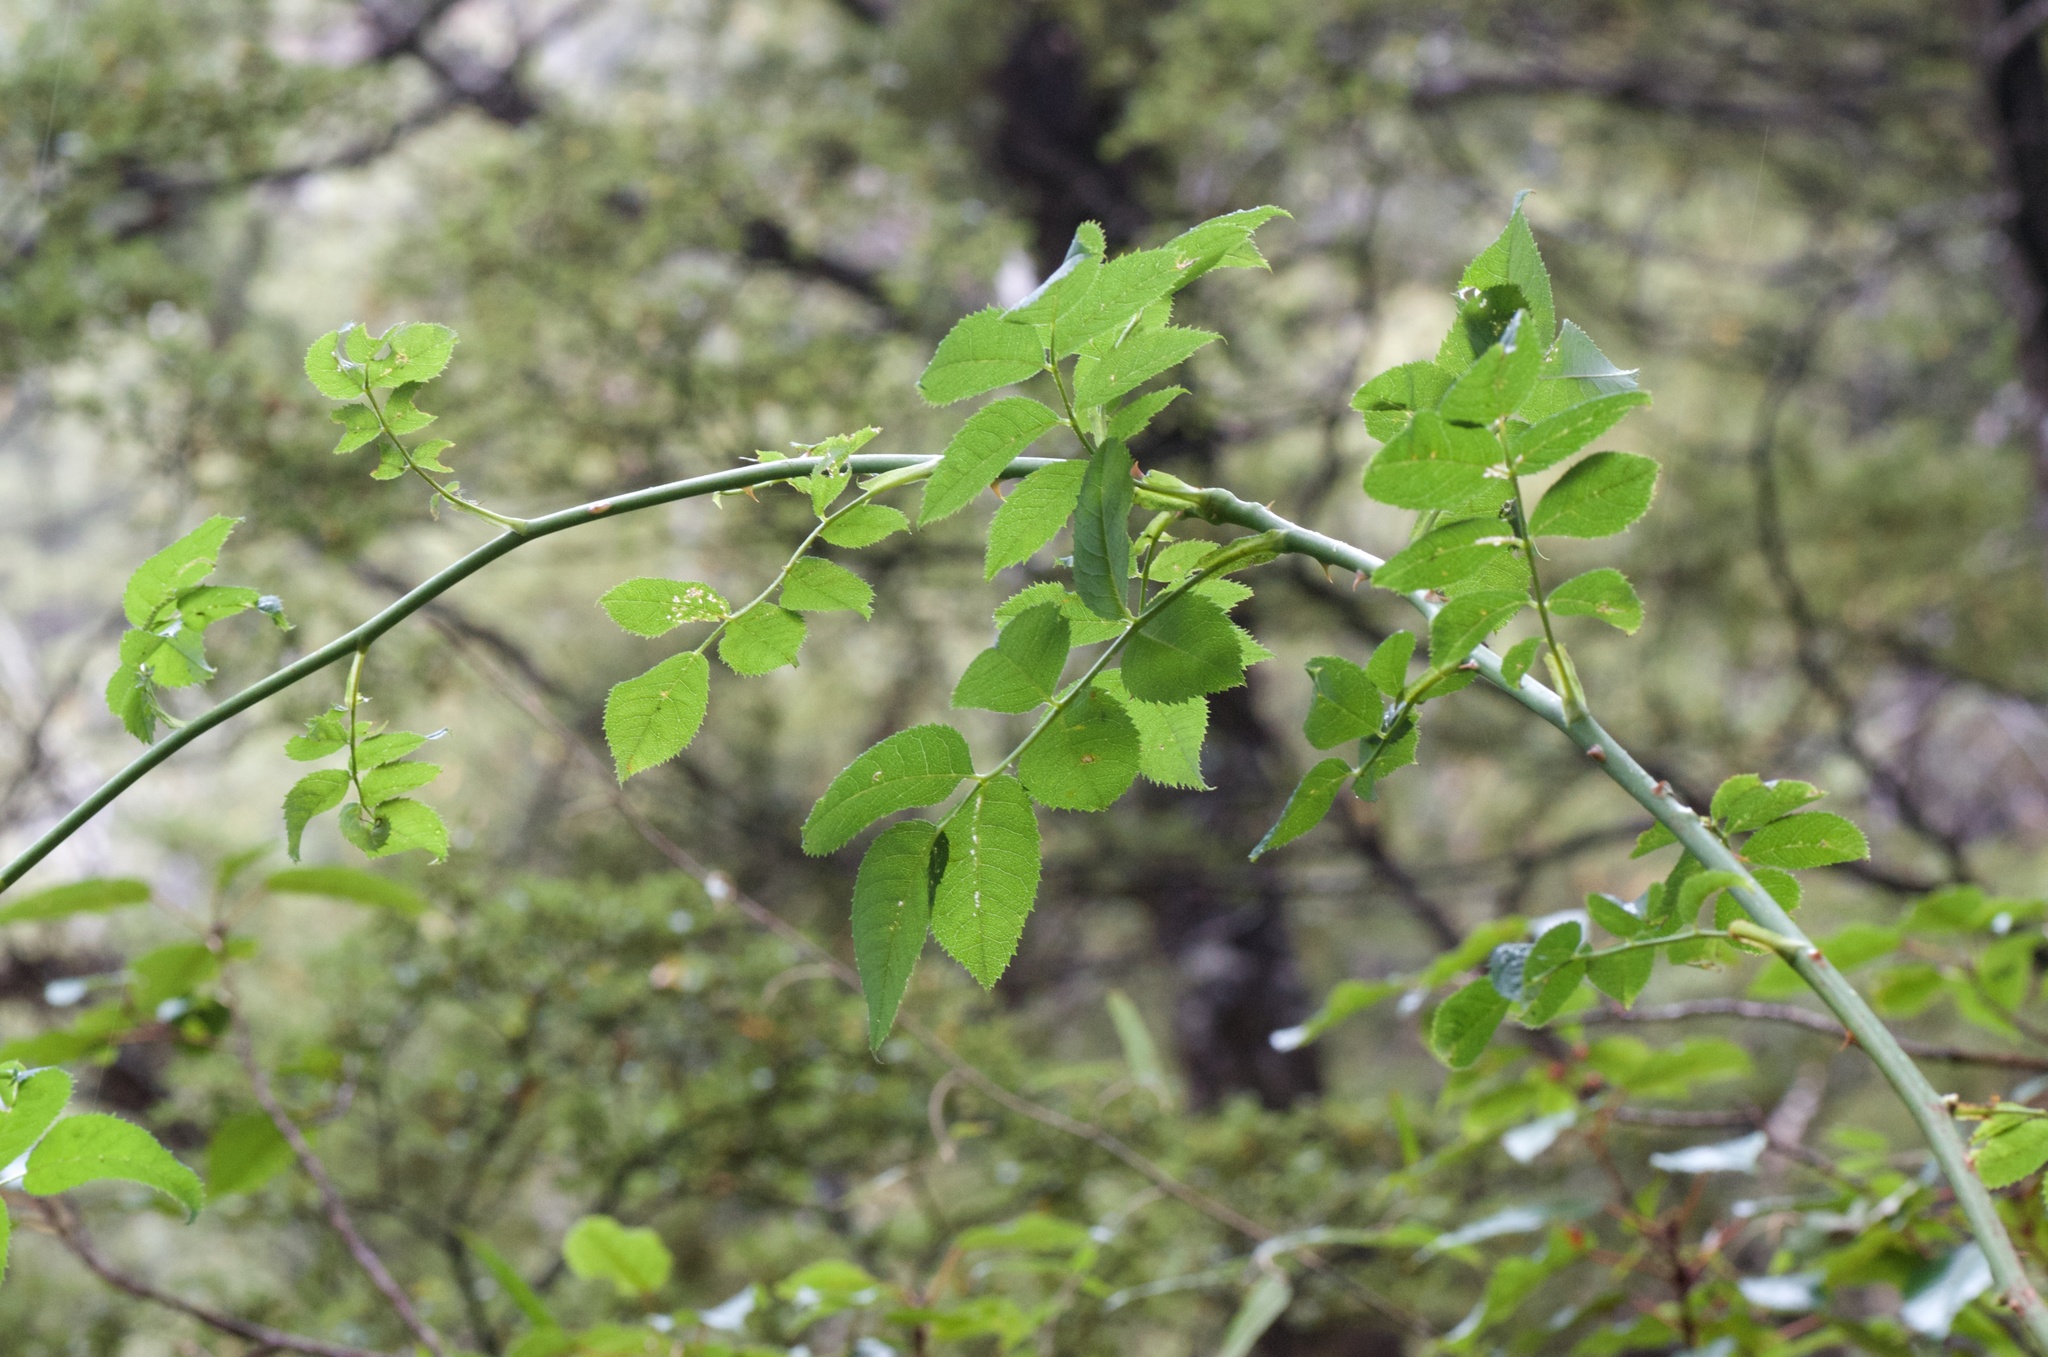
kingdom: Plantae
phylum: Tracheophyta
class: Magnoliopsida
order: Rosales
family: Rosaceae
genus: Rosa
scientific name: Rosa rubiginosa
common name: Sweet-briar
